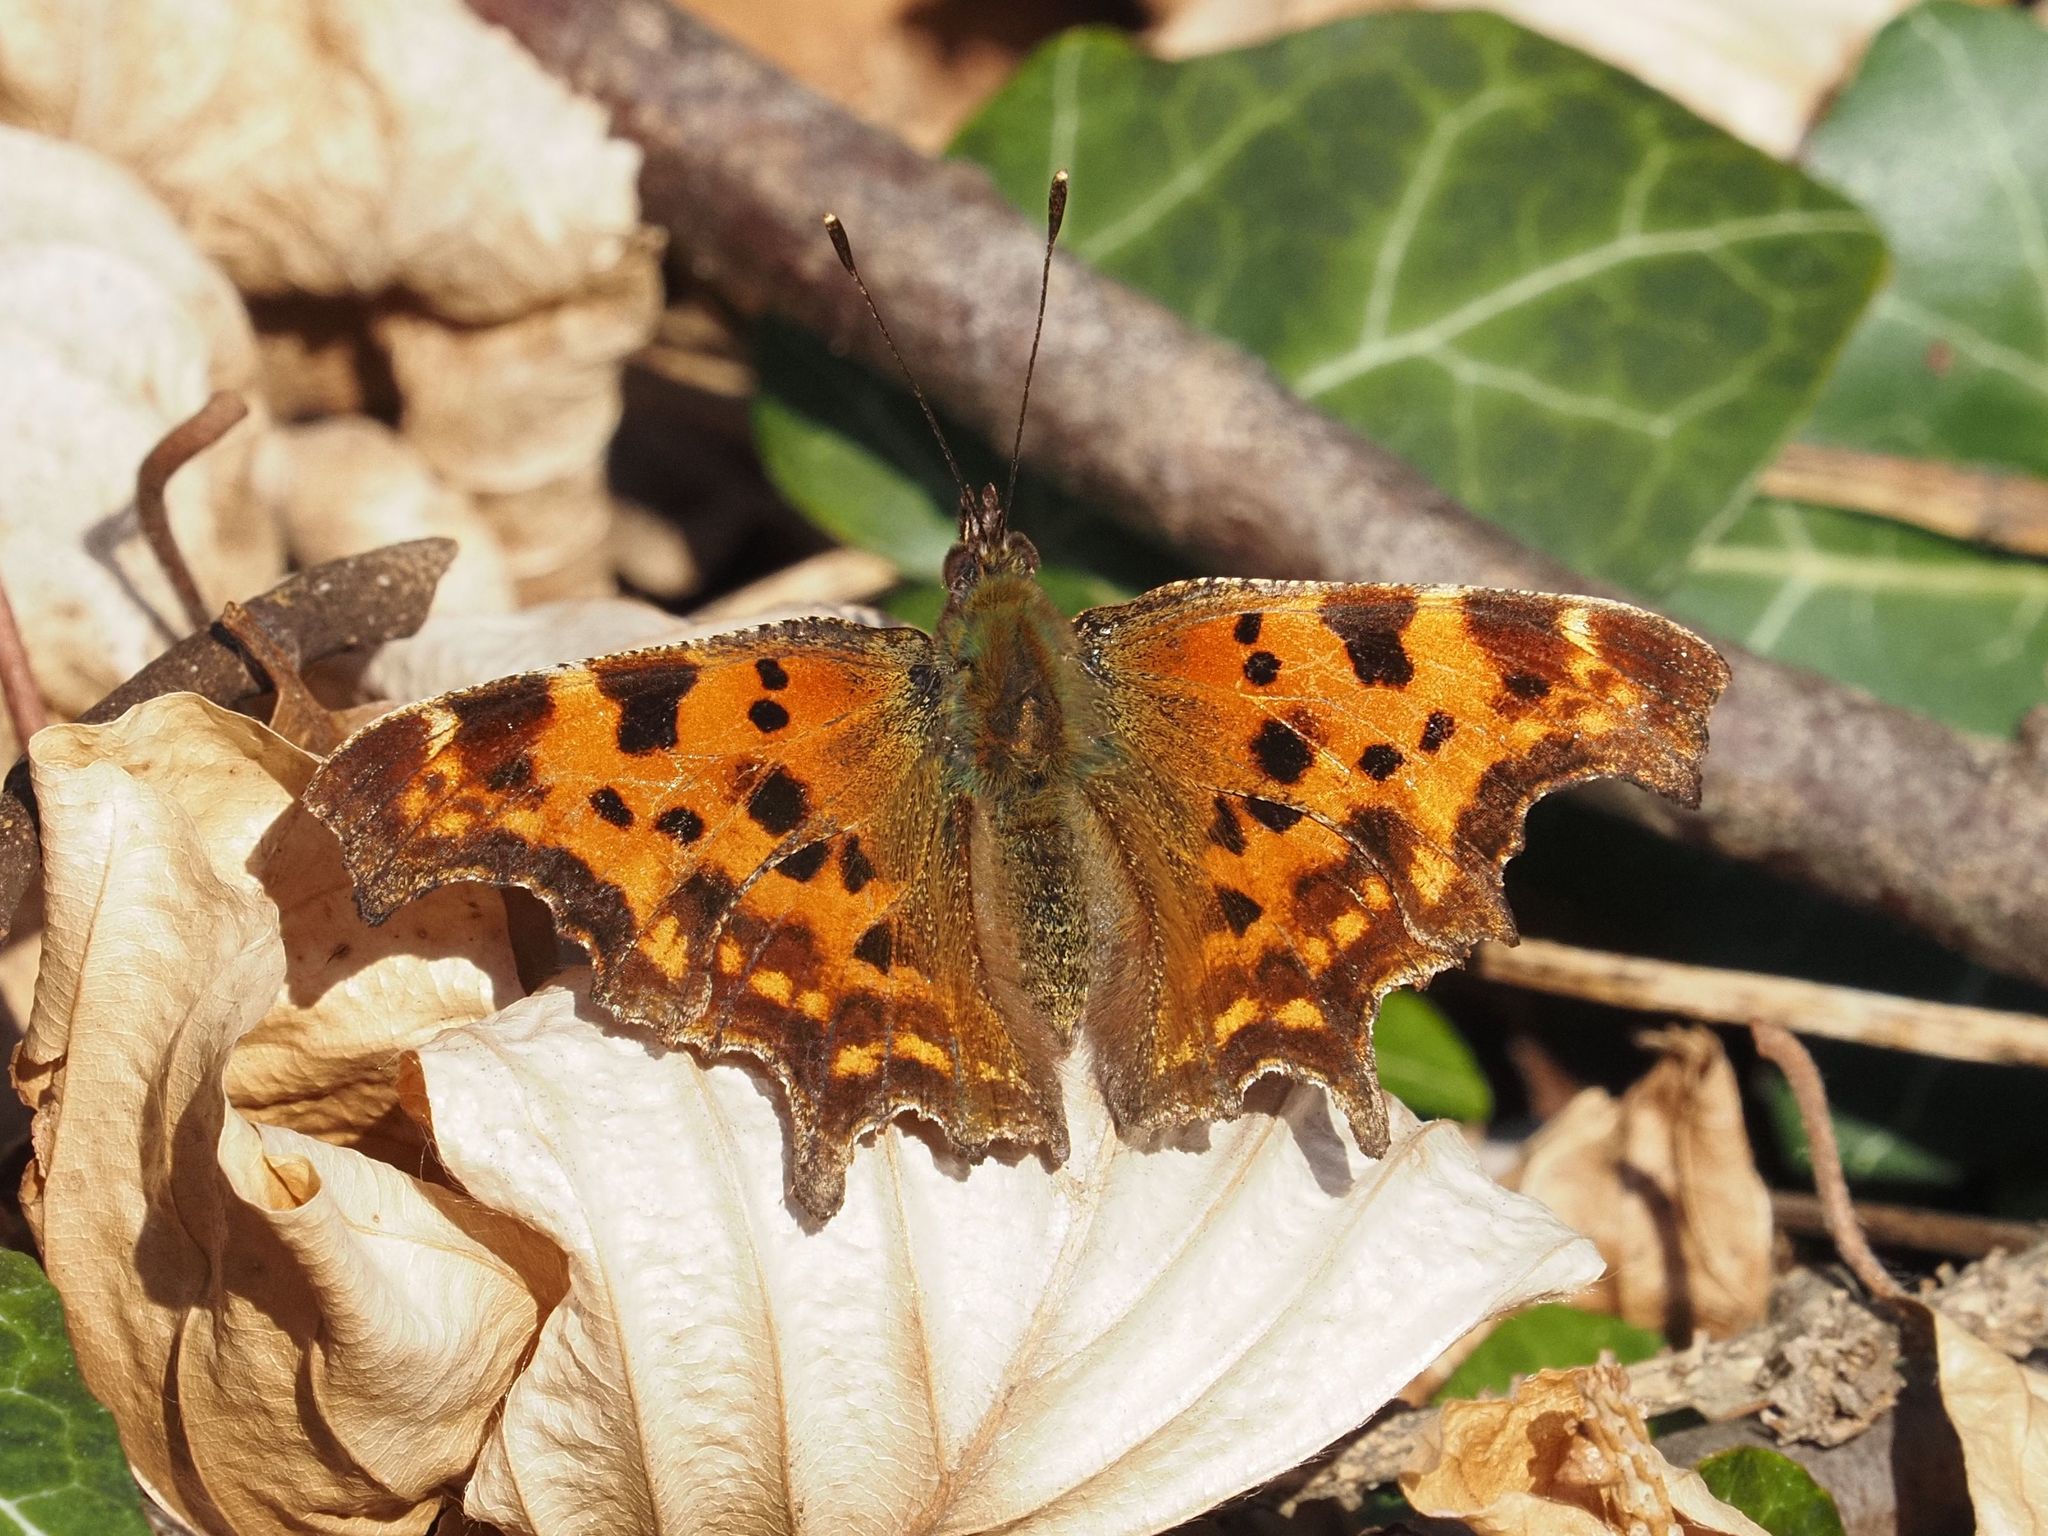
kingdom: Animalia
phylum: Arthropoda
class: Insecta
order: Lepidoptera
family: Nymphalidae
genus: Polygonia
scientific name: Polygonia c-album
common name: Comma
